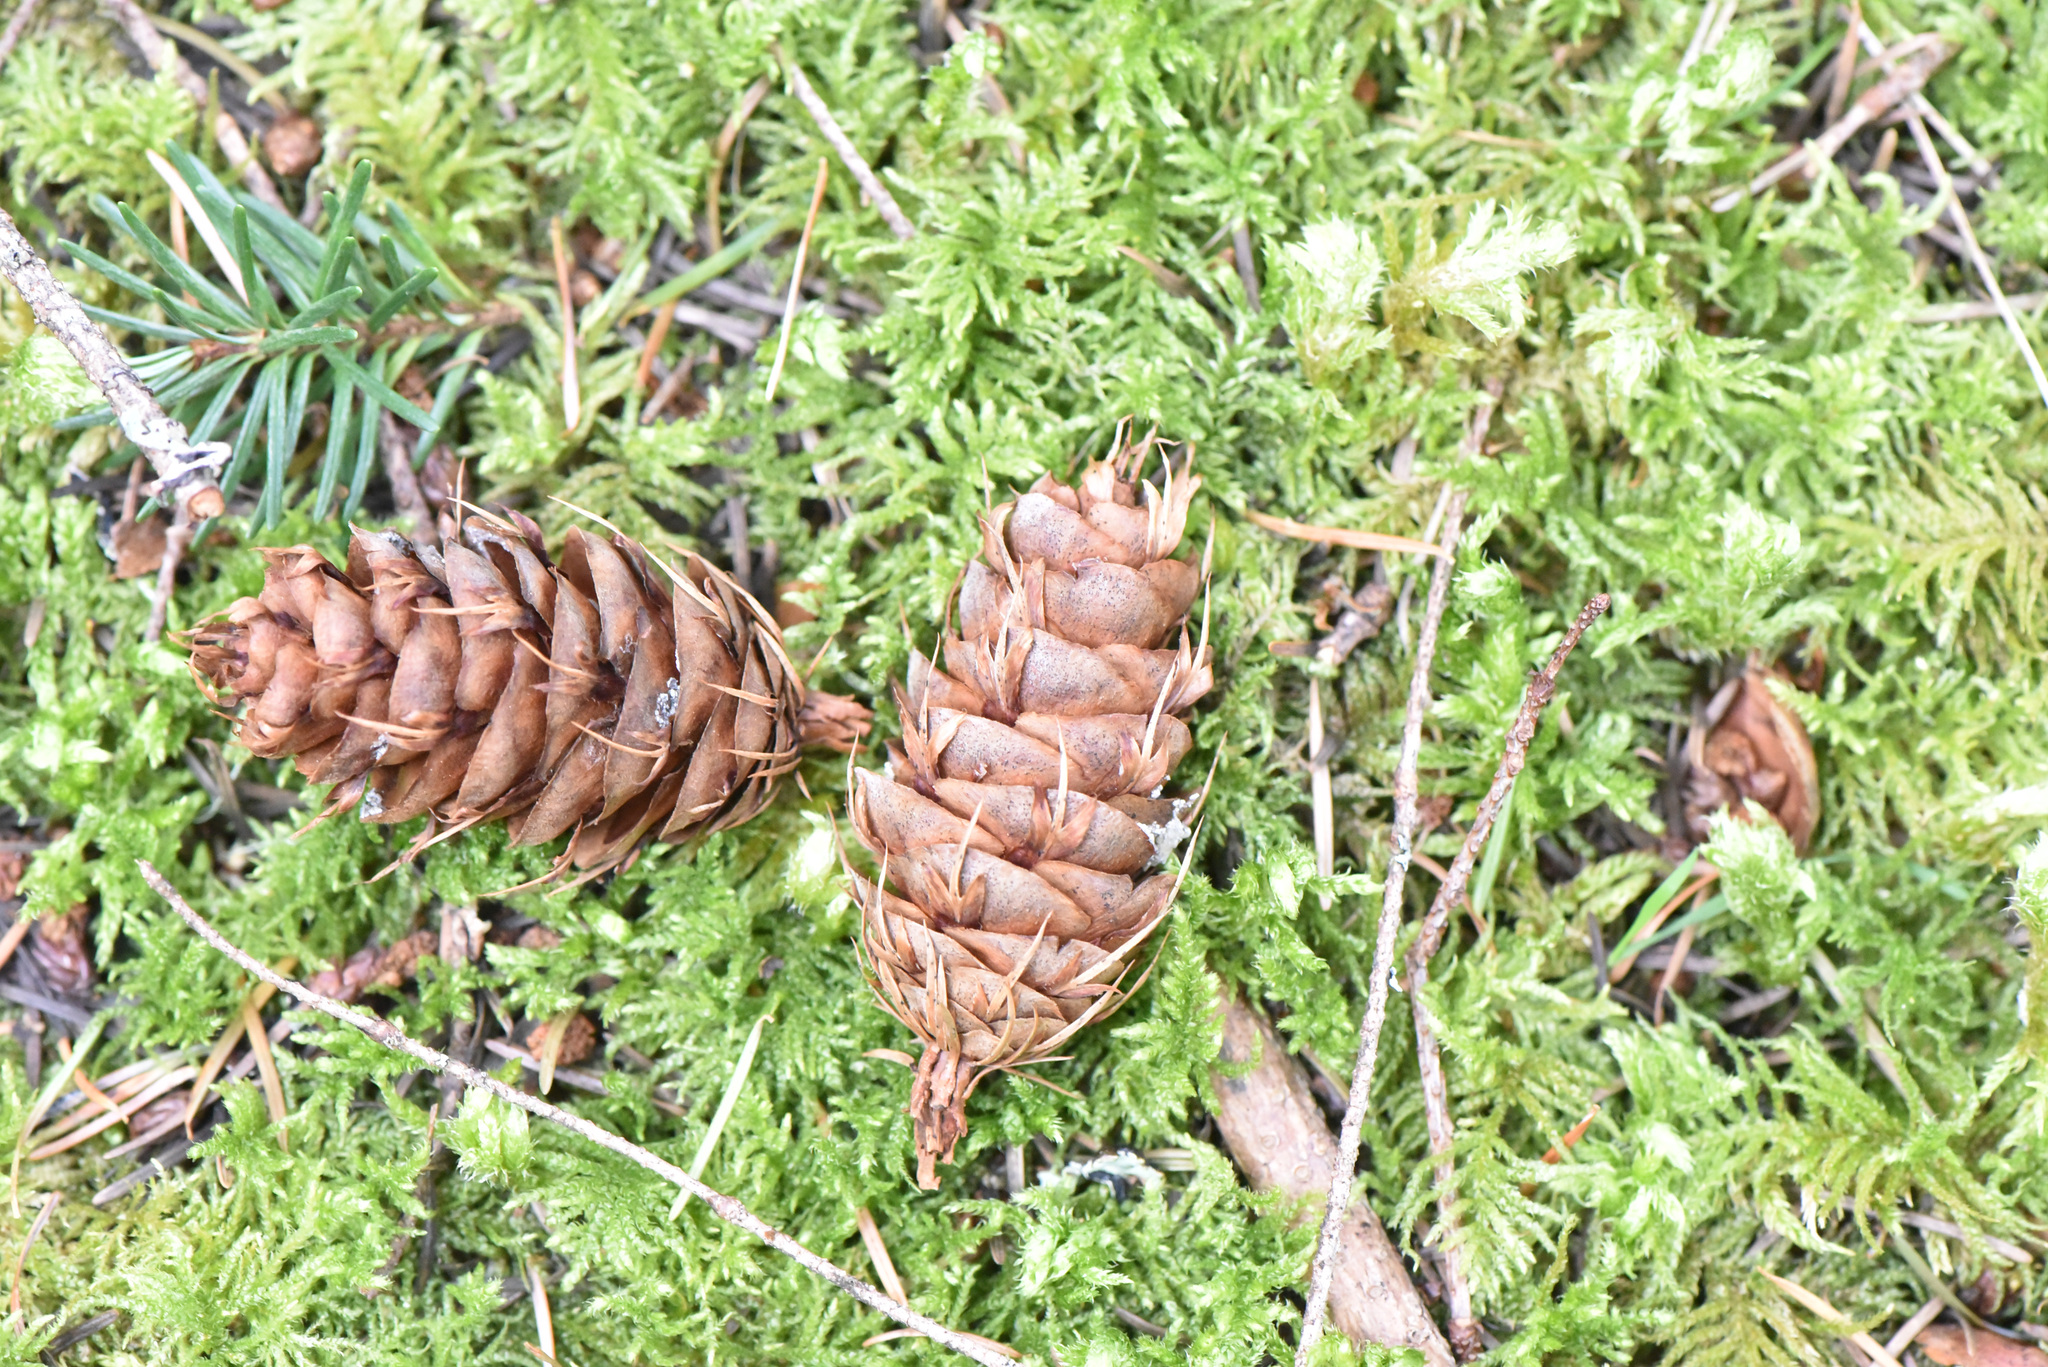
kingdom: Plantae
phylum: Tracheophyta
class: Pinopsida
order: Pinales
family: Pinaceae
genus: Pseudotsuga
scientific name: Pseudotsuga menziesii
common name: Douglas fir
